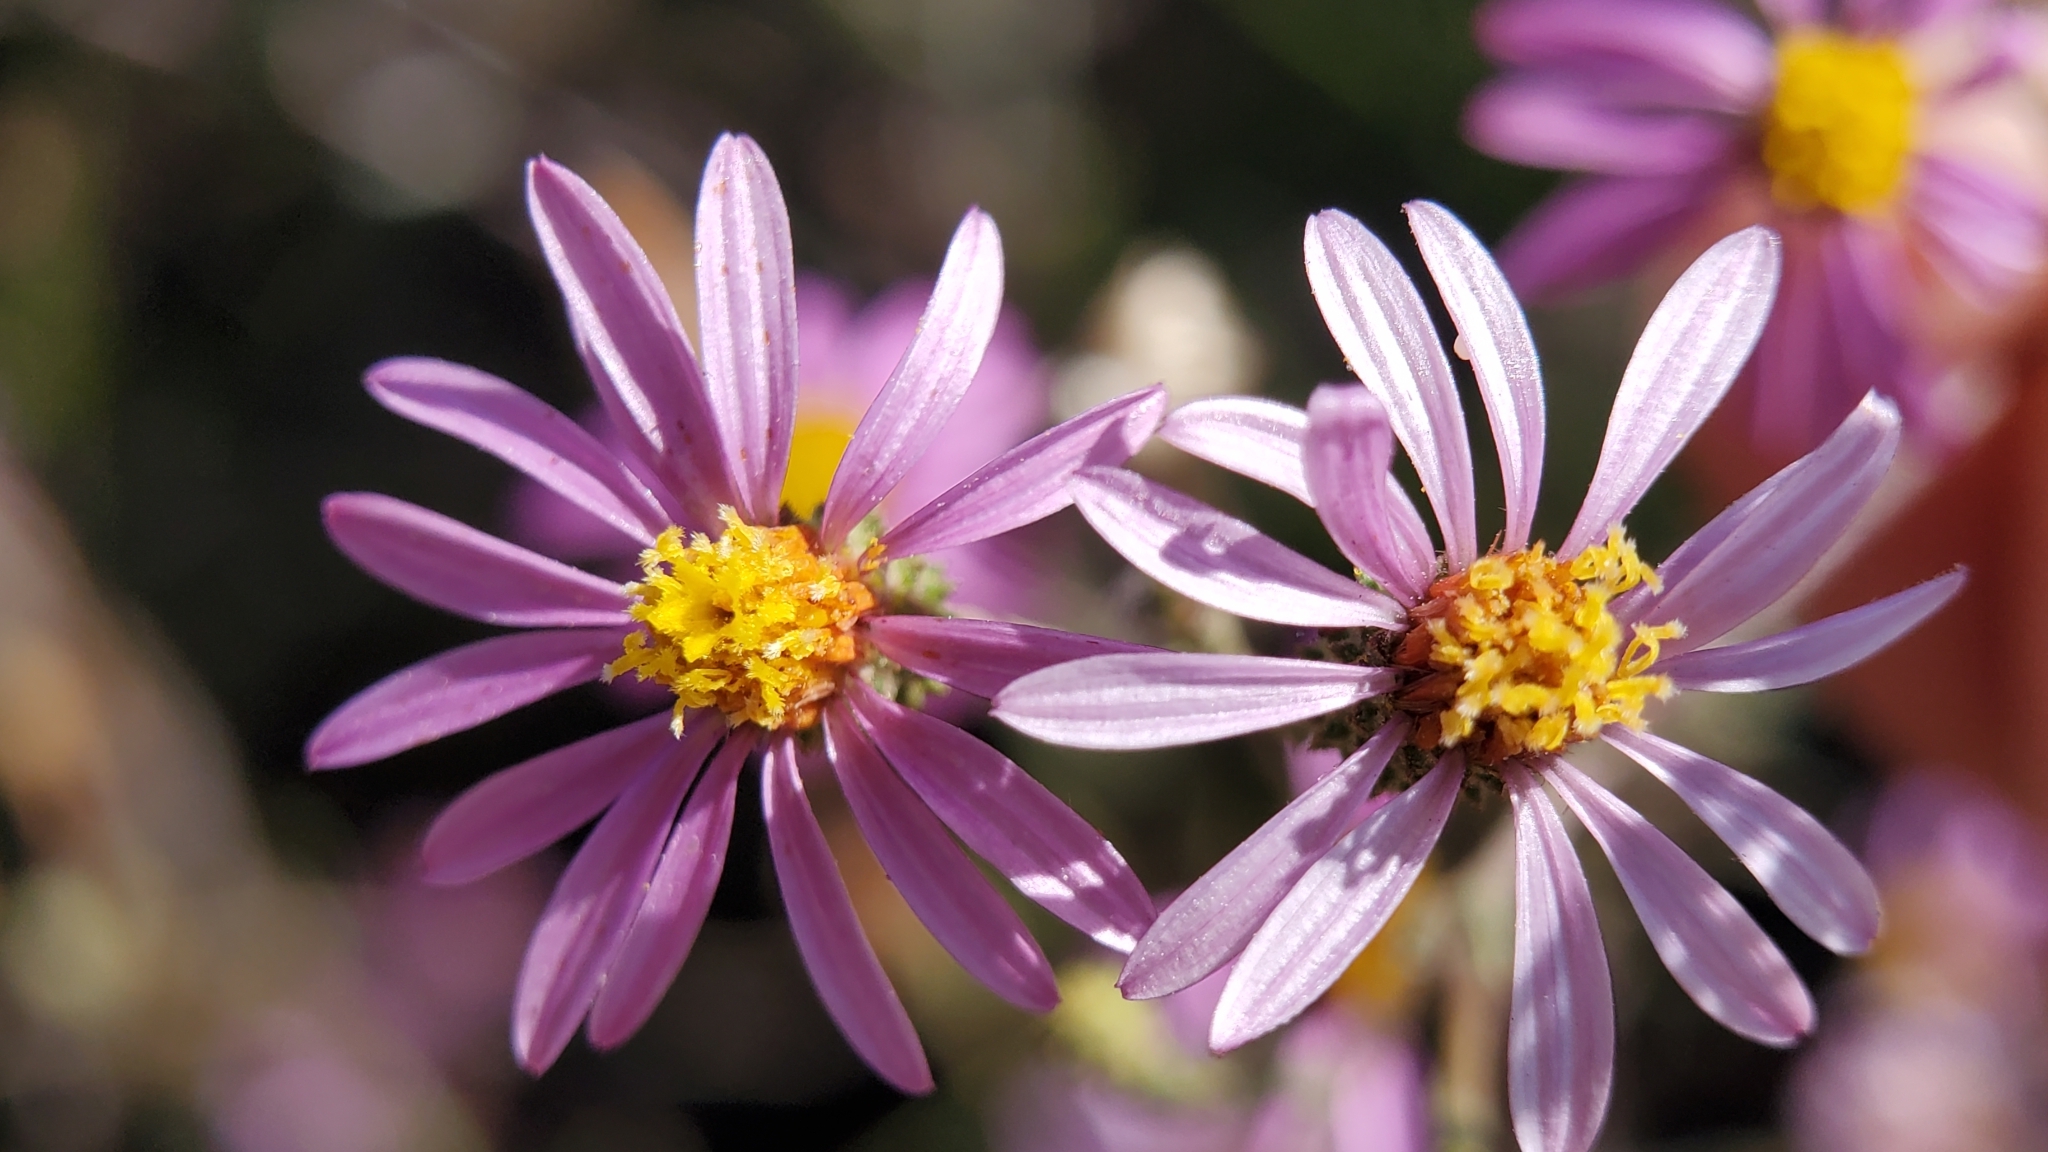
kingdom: Plantae
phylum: Tracheophyta
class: Magnoliopsida
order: Asterales
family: Asteraceae
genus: Corethrogyne
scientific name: Corethrogyne filaginifolia
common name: Sand-aster
